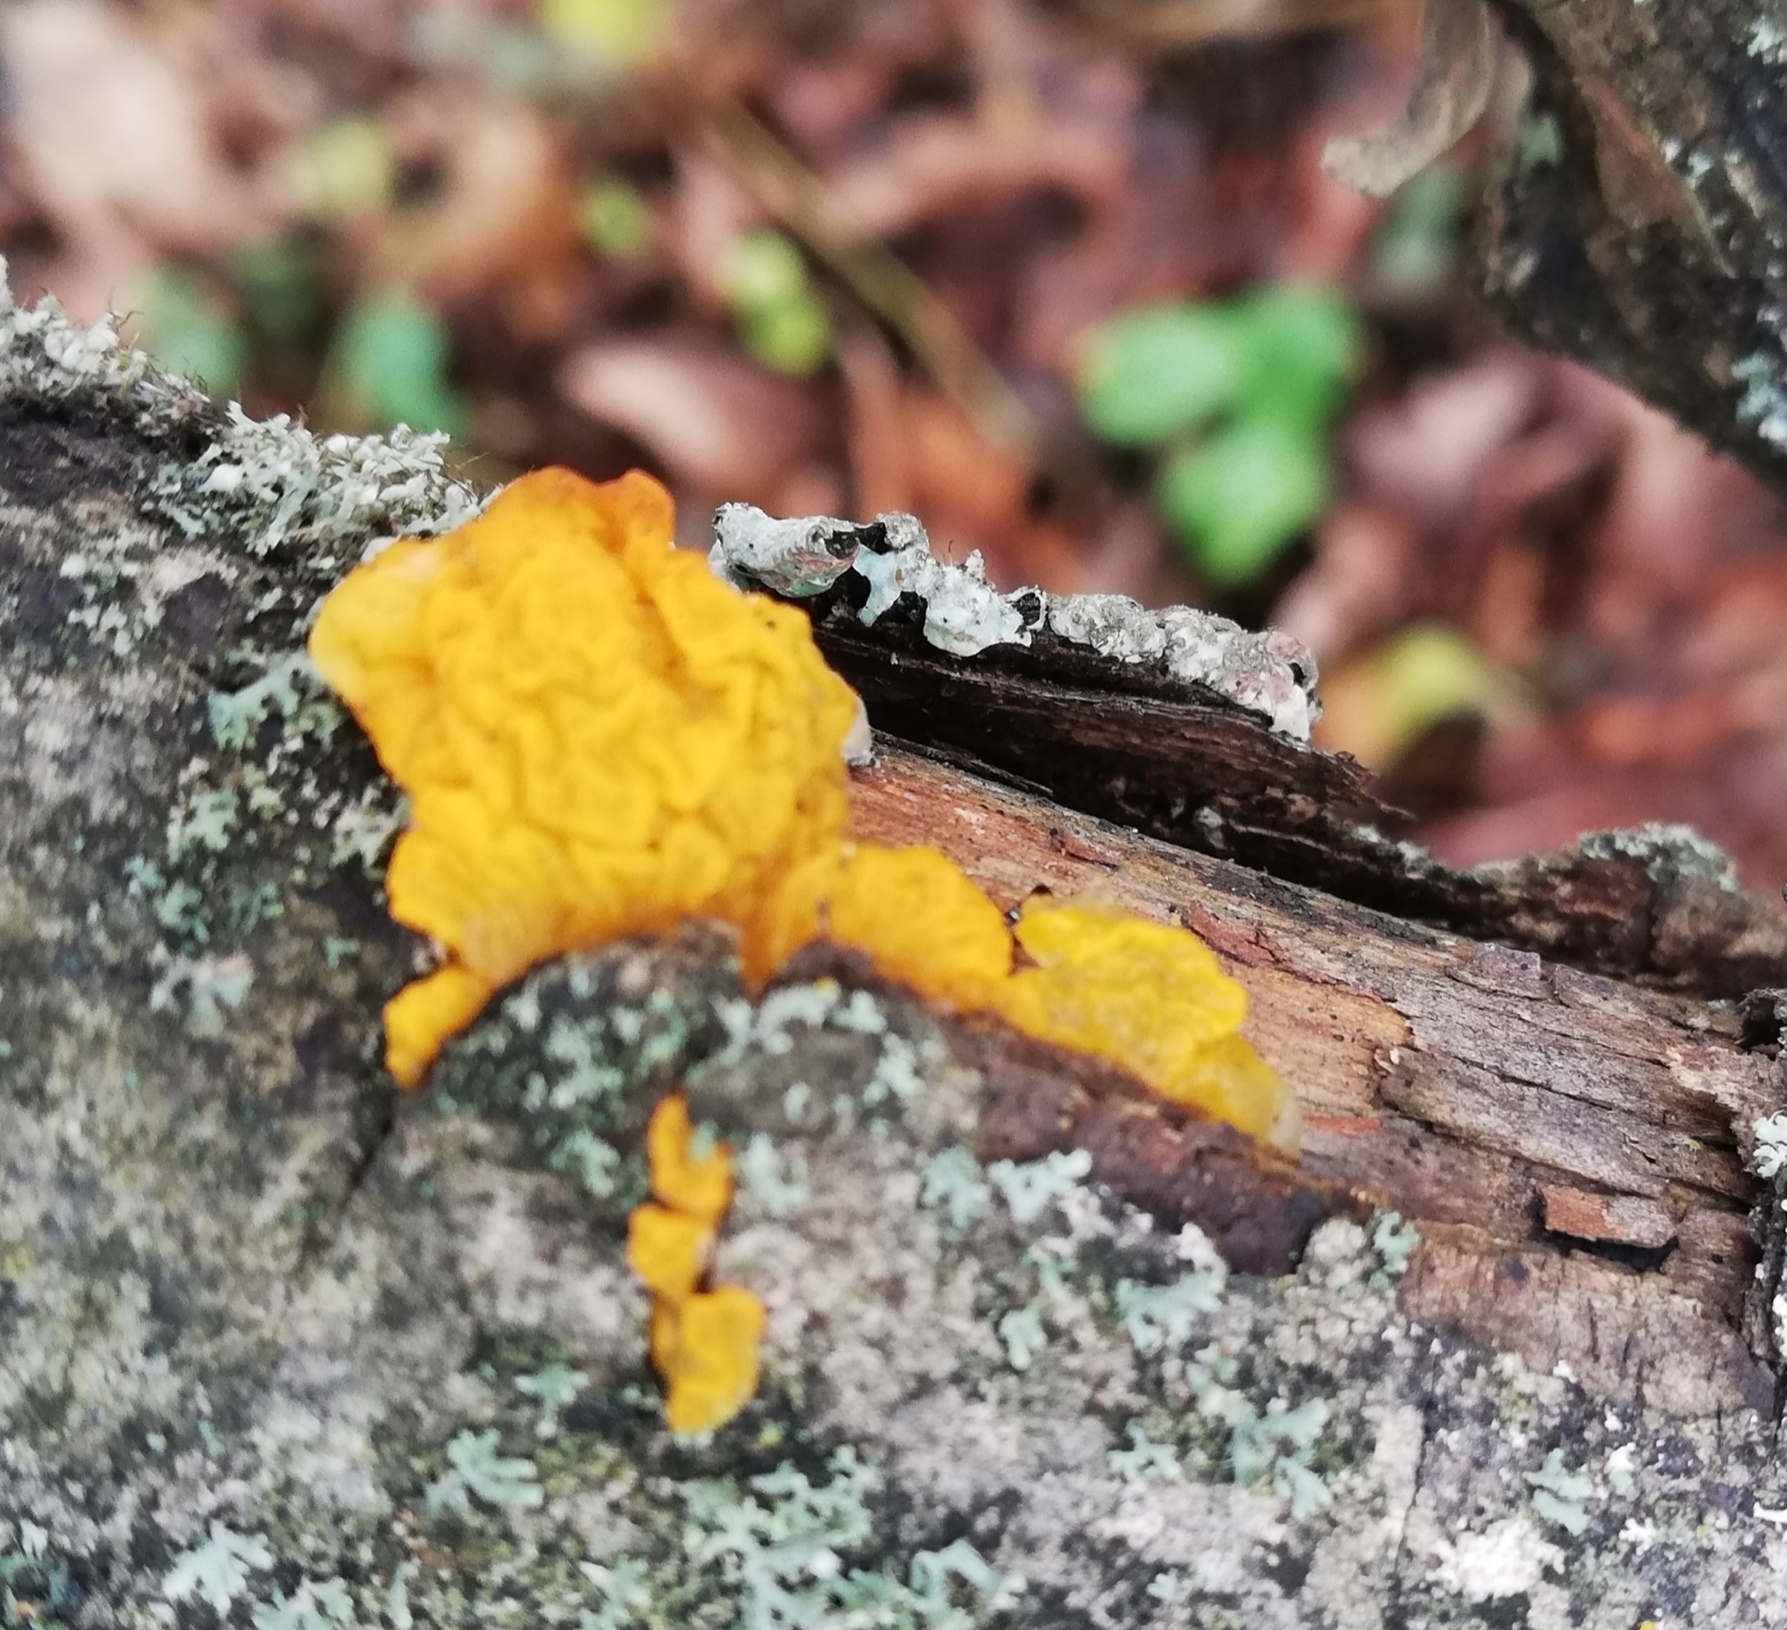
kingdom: Fungi
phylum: Basidiomycota
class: Tremellomycetes
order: Tremellales
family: Tremellaceae
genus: Tremella
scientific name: Tremella mesenterica
